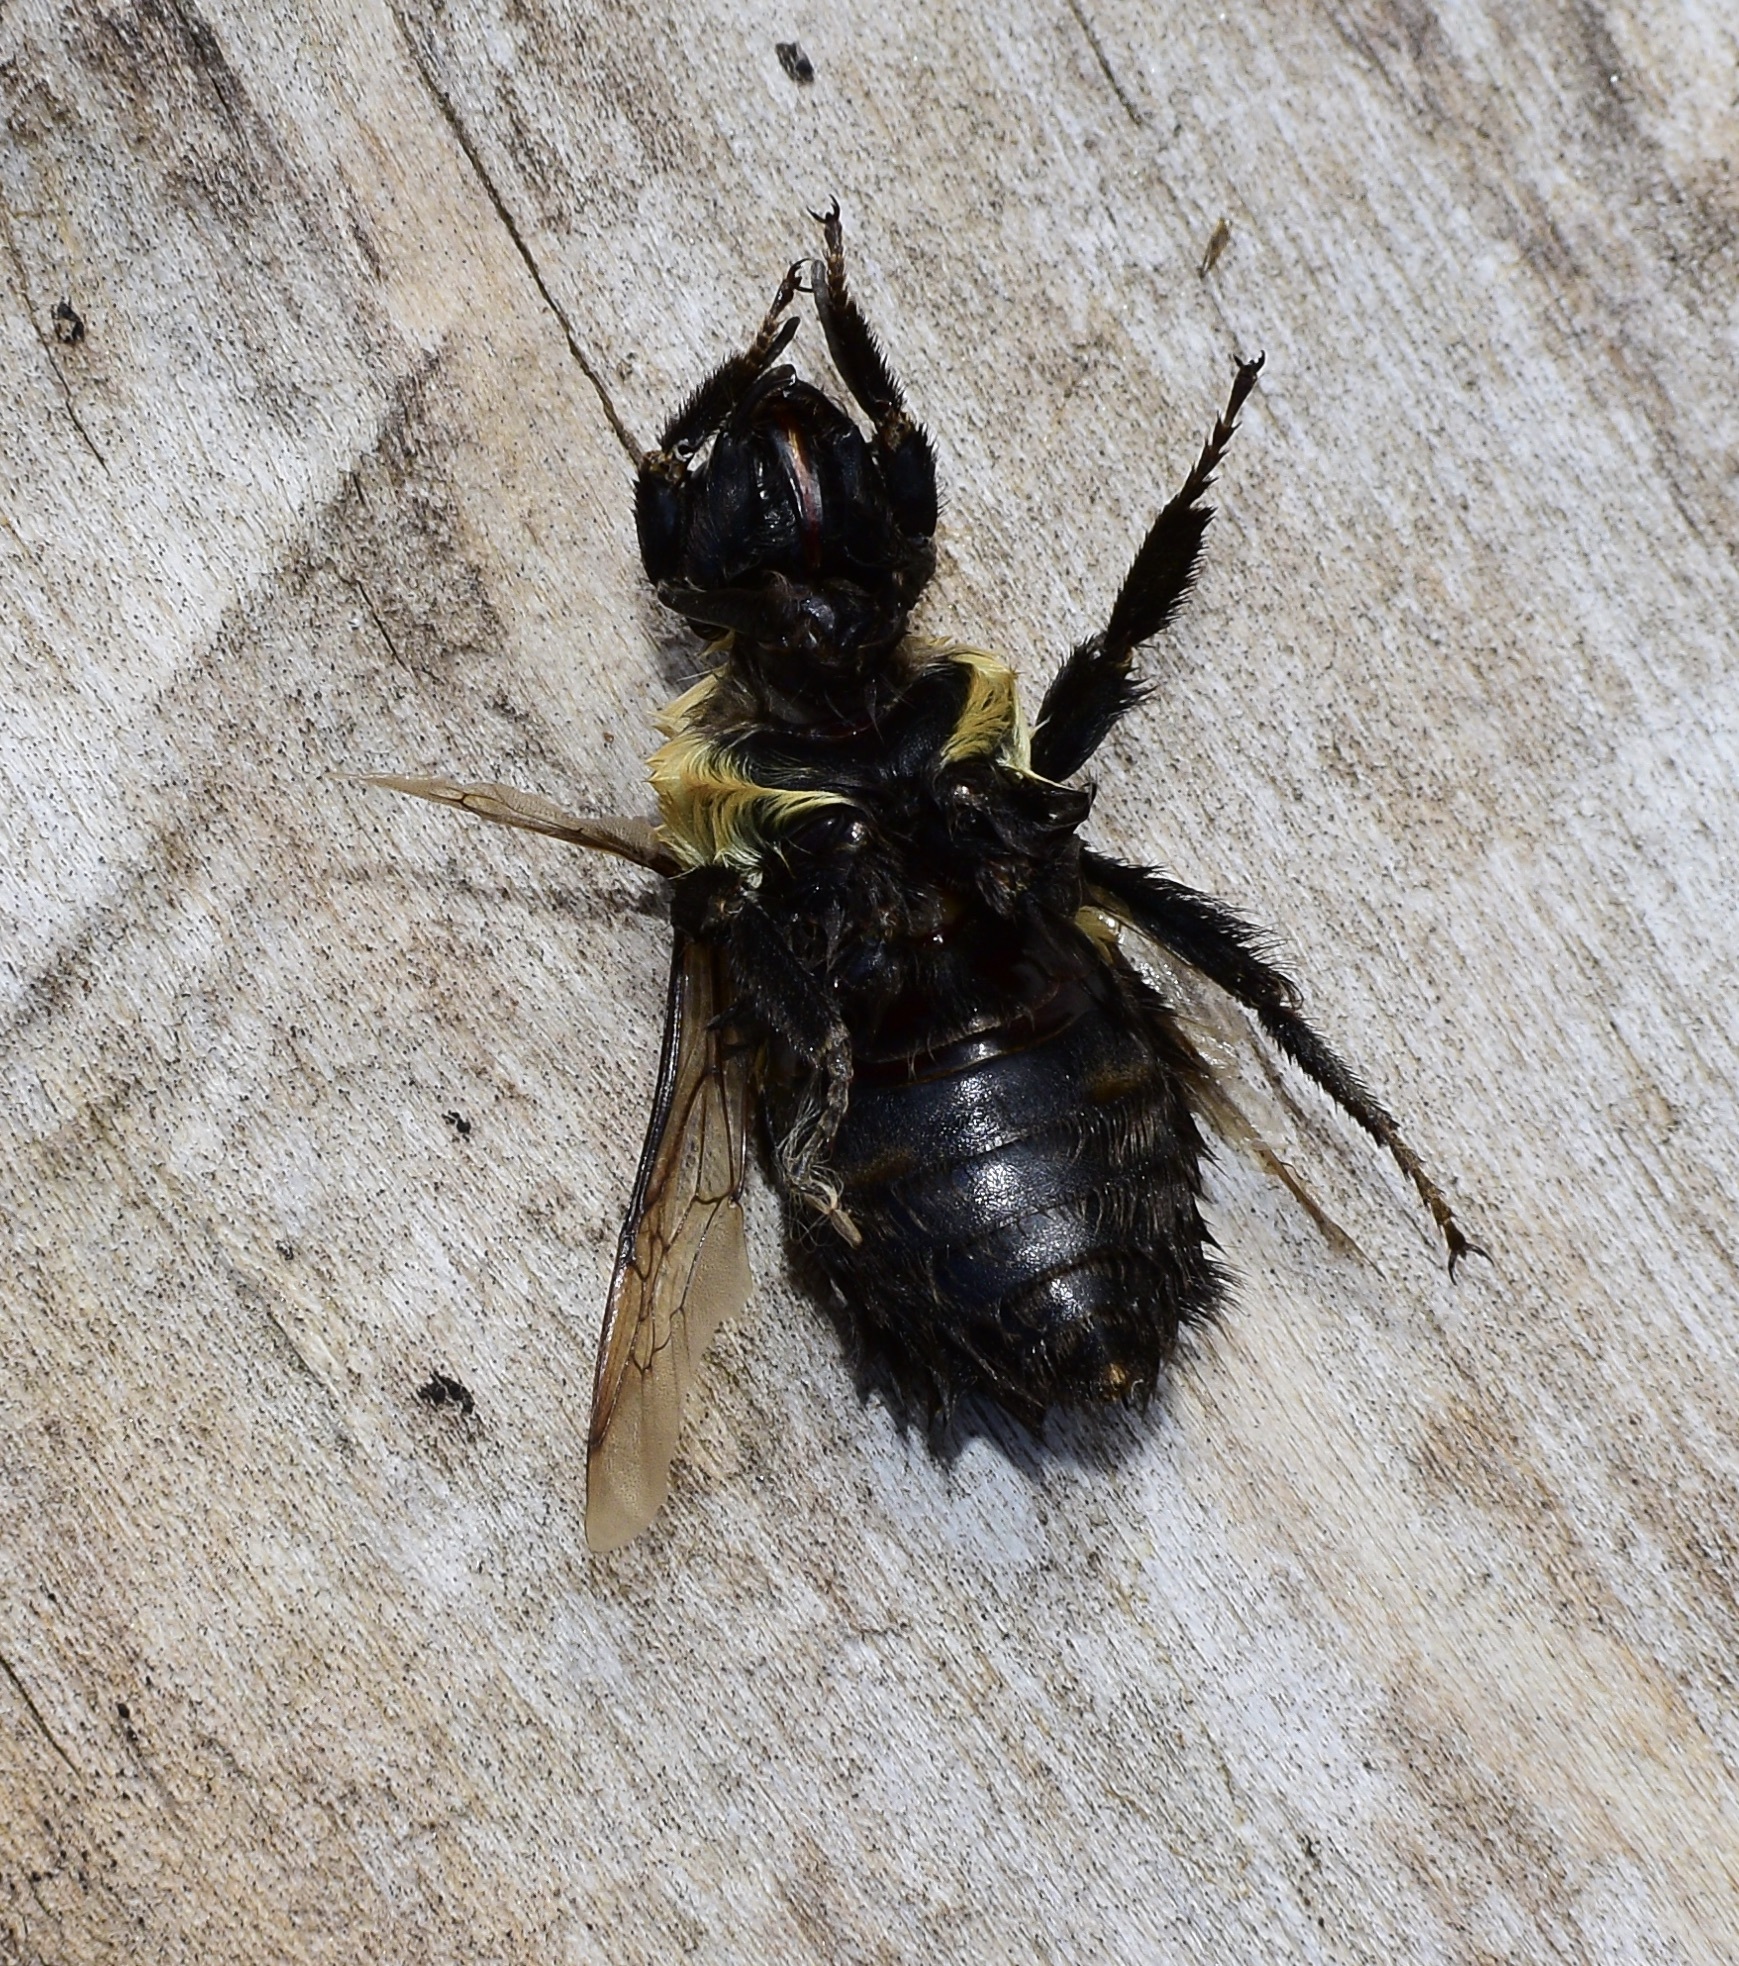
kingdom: Animalia
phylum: Arthropoda
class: Insecta
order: Hymenoptera
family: Apidae
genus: Bombus
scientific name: Bombus impatiens
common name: Common eastern bumble bee
